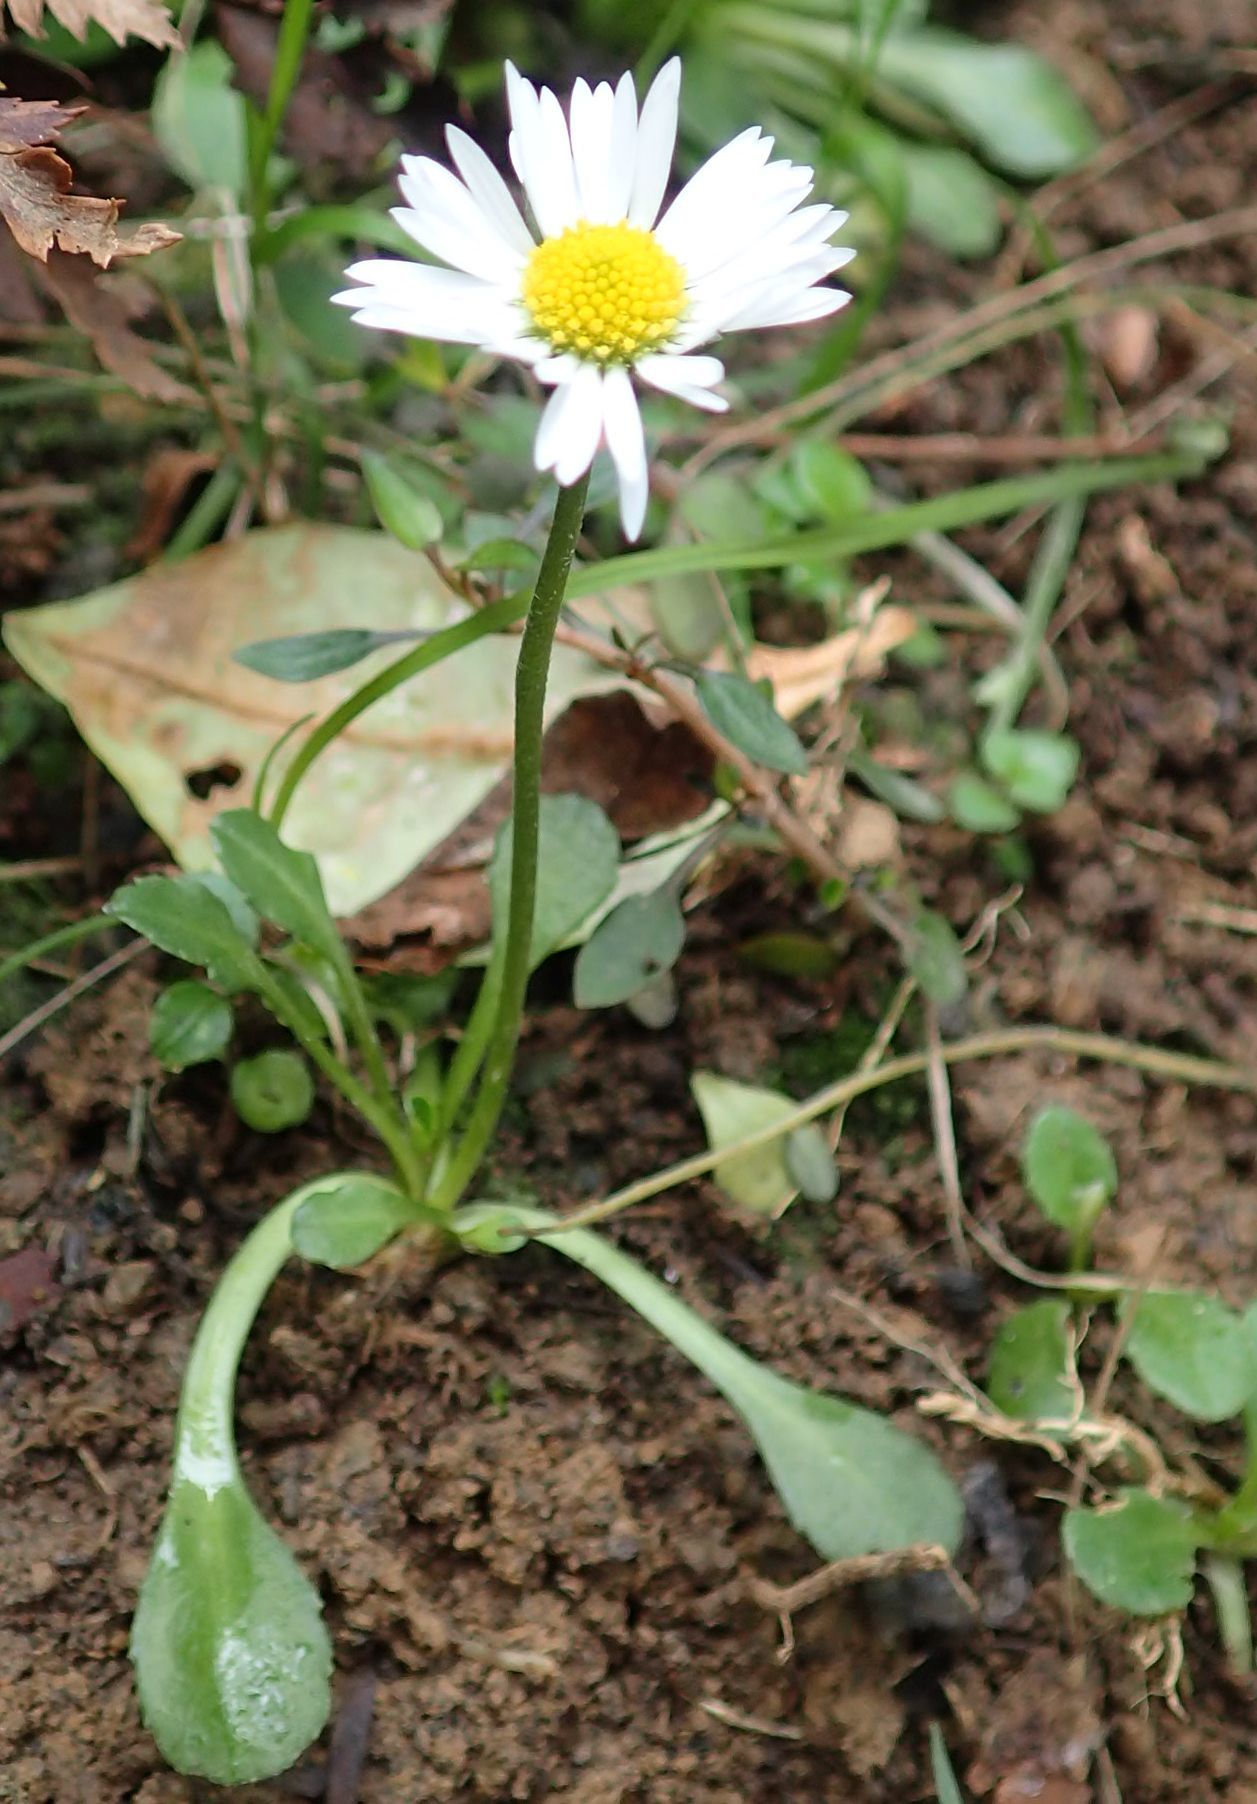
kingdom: Plantae
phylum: Tracheophyta
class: Magnoliopsida
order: Asterales
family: Asteraceae
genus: Bellis
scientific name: Bellis perennis
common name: Lawndaisy
